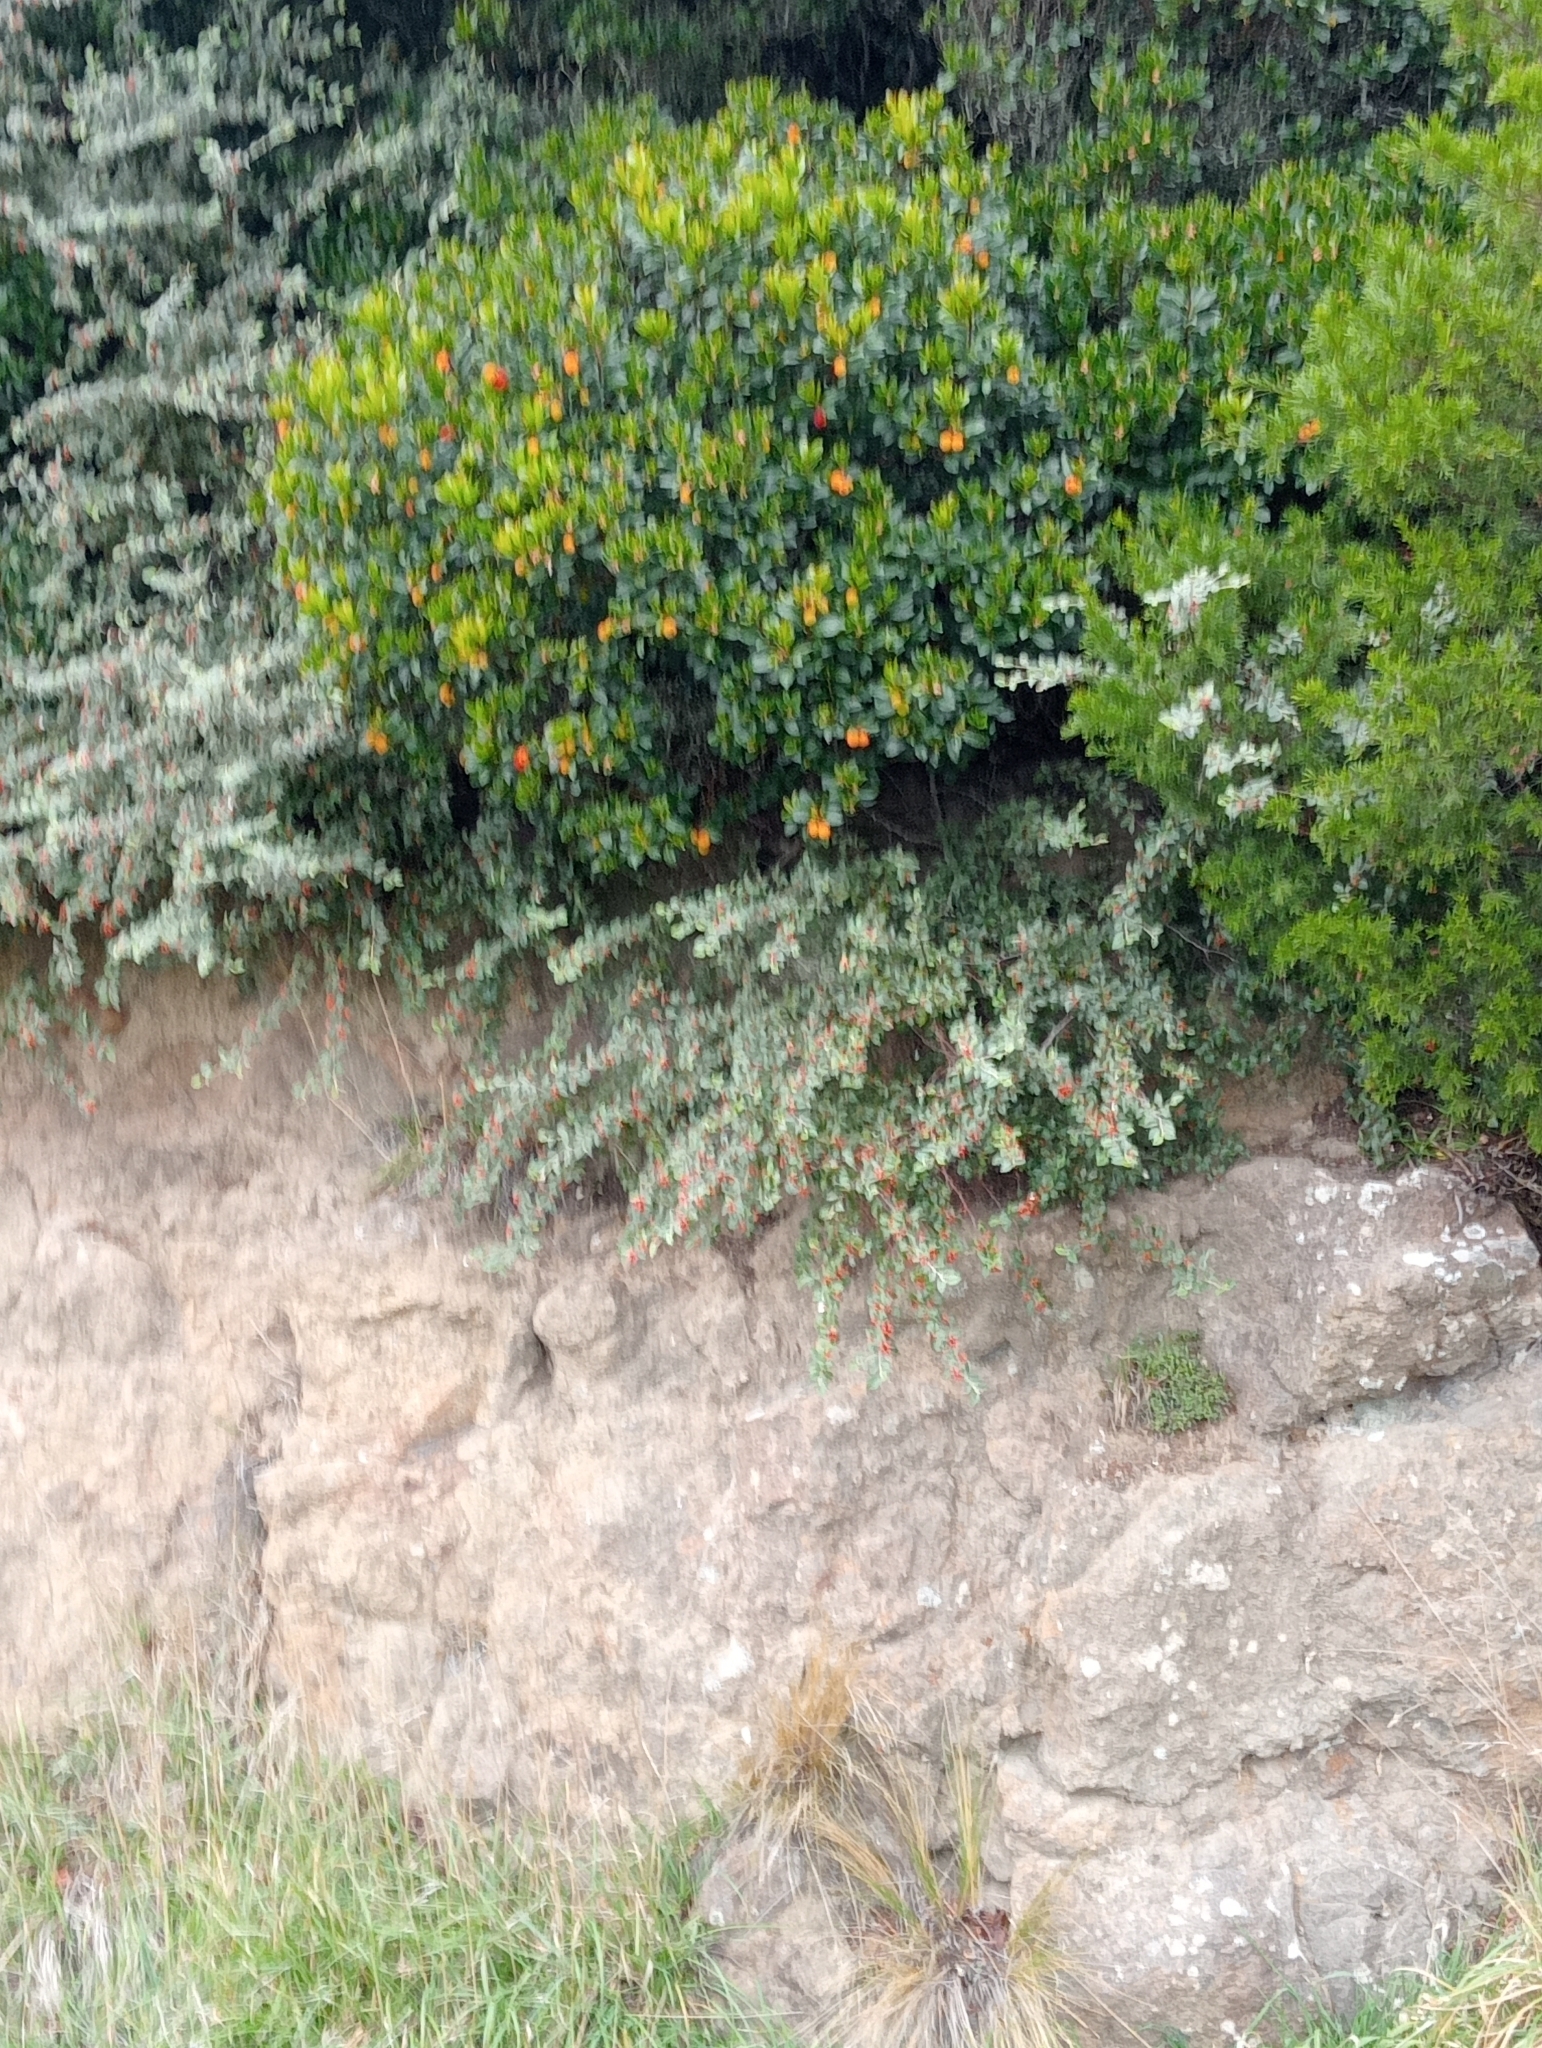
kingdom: Plantae
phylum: Tracheophyta
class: Magnoliopsida
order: Rosales
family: Rosaceae
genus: Cotoneaster
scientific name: Cotoneaster franchetii
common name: Franchet's cotoneaster
